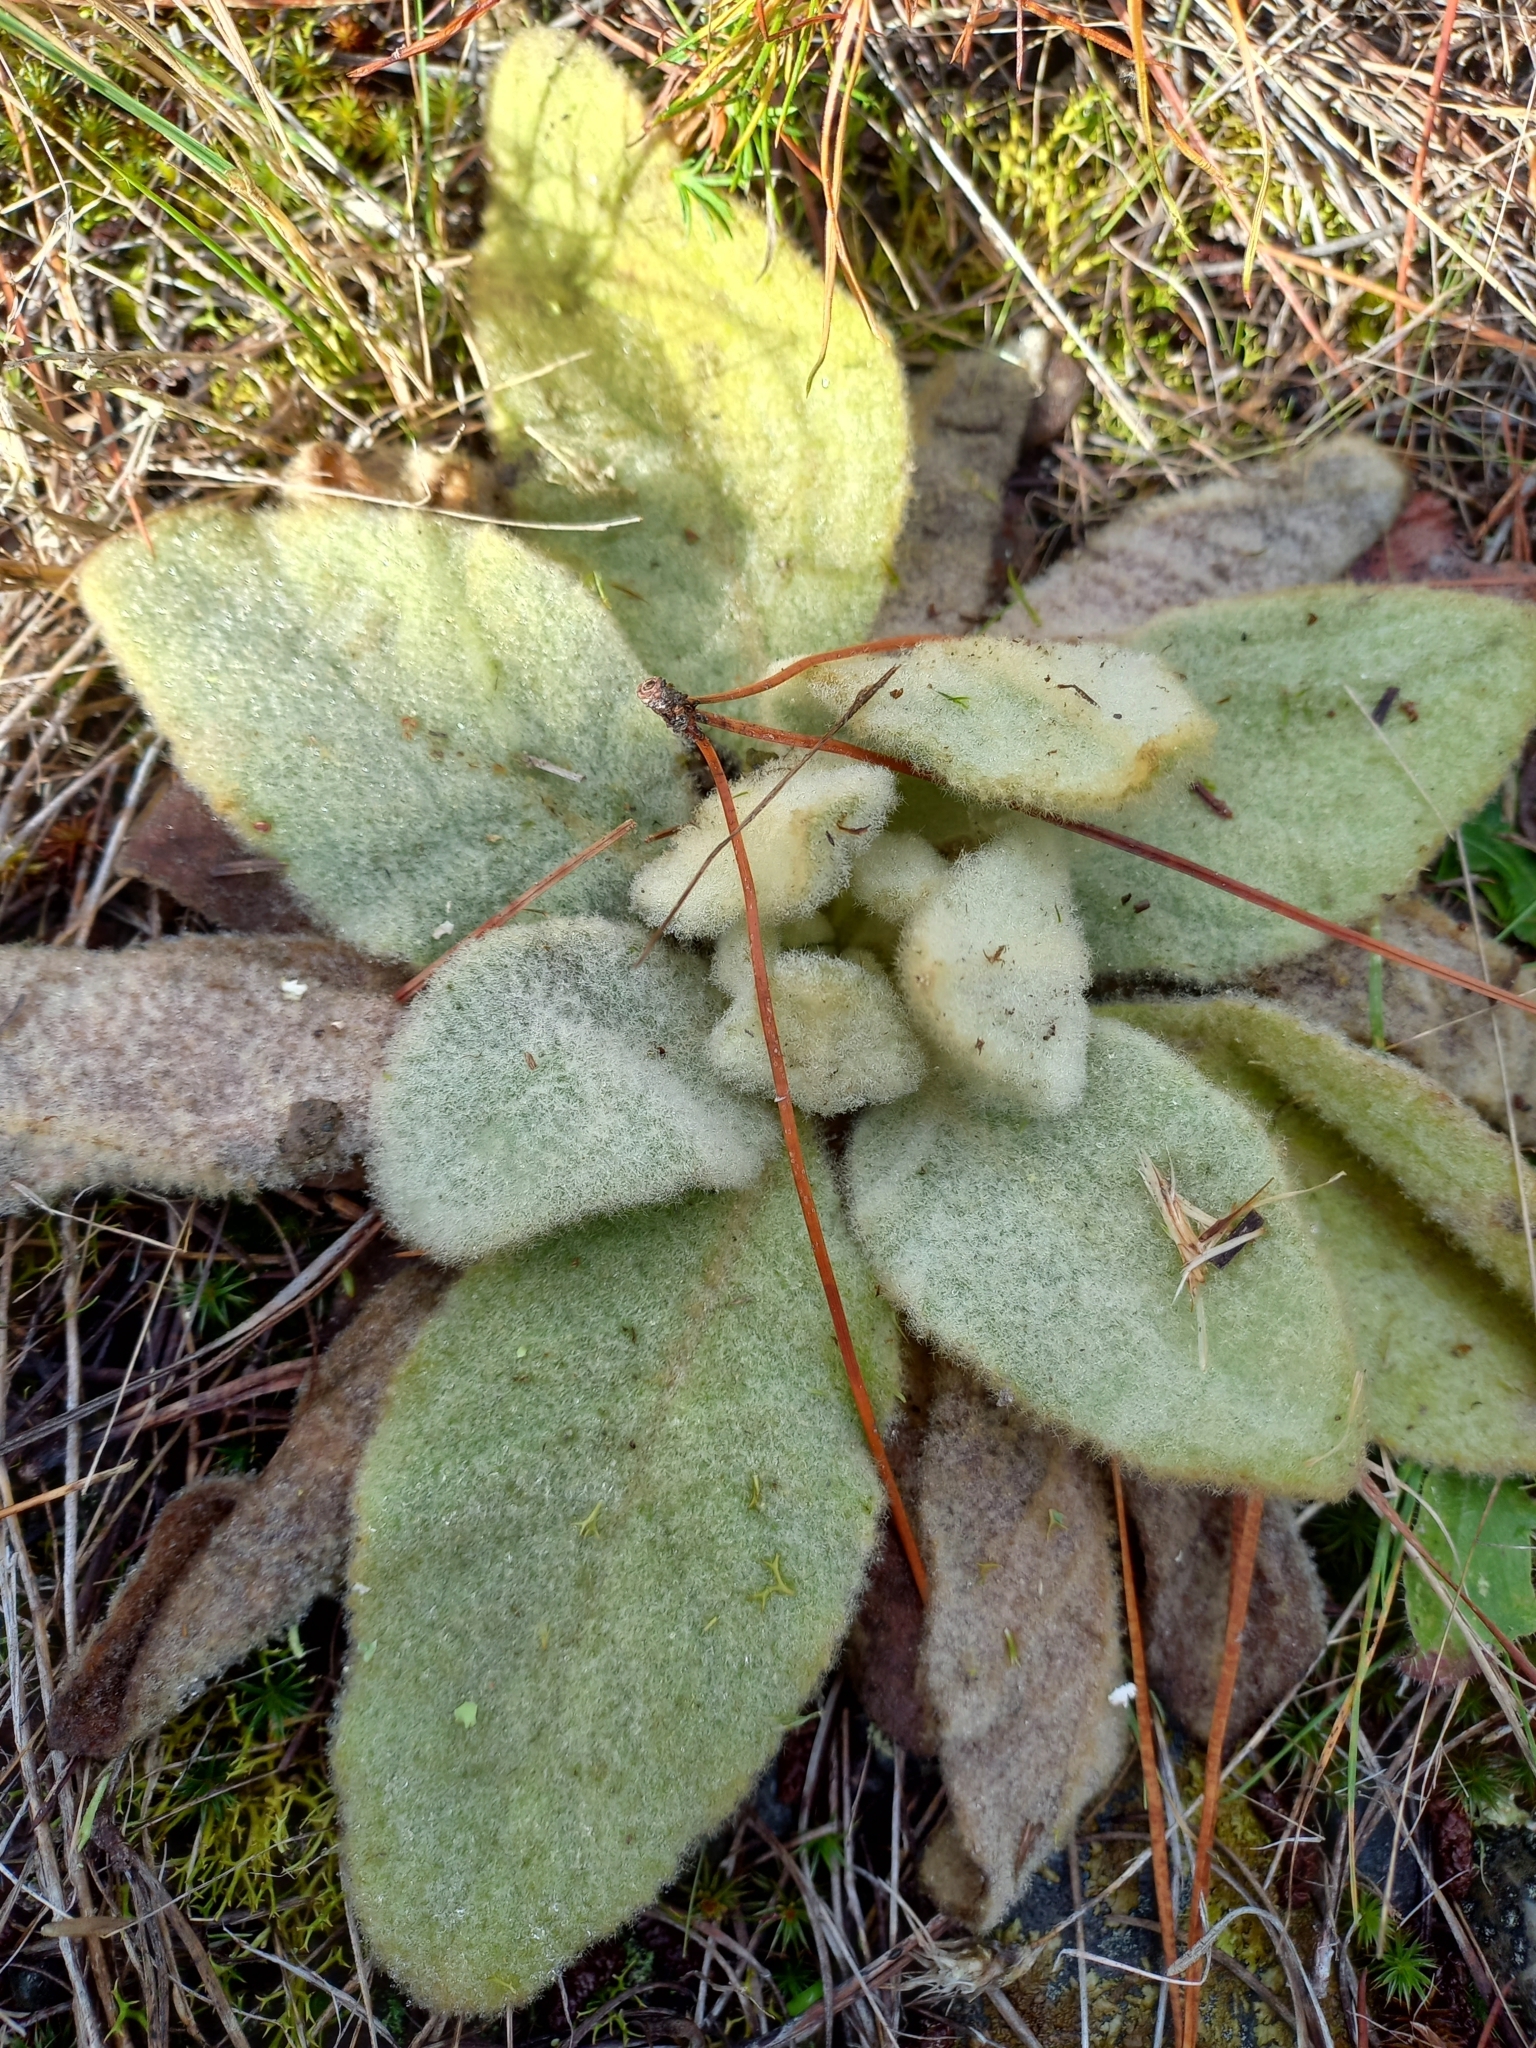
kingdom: Plantae
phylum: Tracheophyta
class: Magnoliopsida
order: Lamiales
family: Scrophulariaceae
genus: Verbascum
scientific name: Verbascum thapsus
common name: Common mullein
